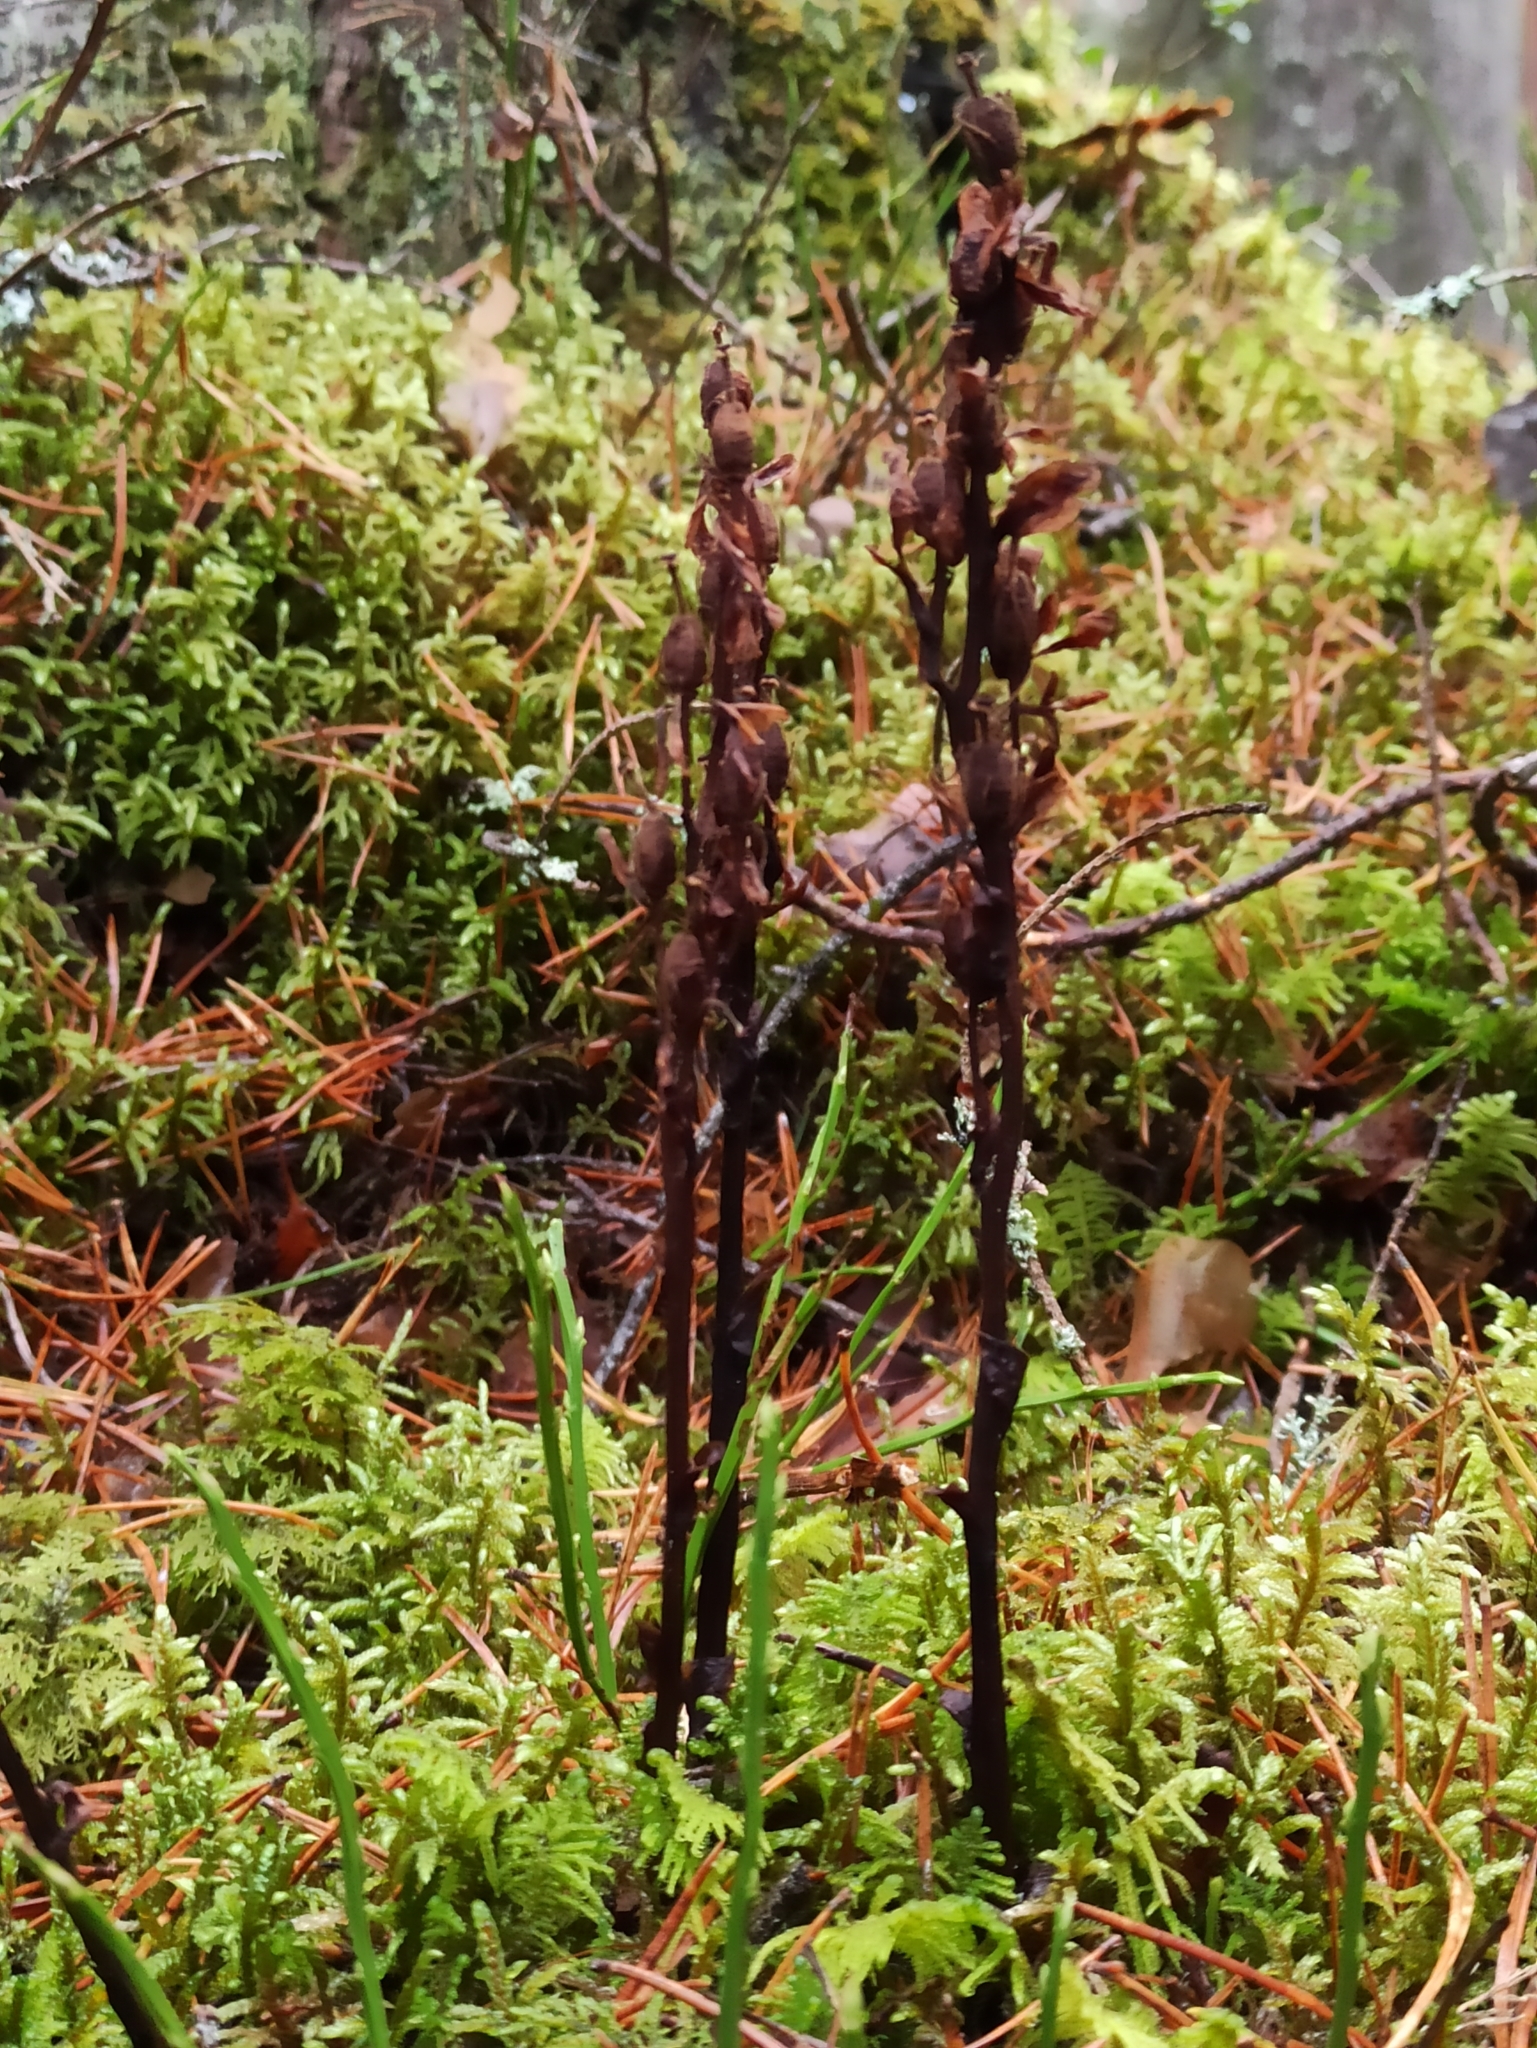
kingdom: Plantae
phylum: Tracheophyta
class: Magnoliopsida
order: Ericales
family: Ericaceae
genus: Hypopitys
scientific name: Hypopitys monotropa
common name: Yellow bird's-nest
